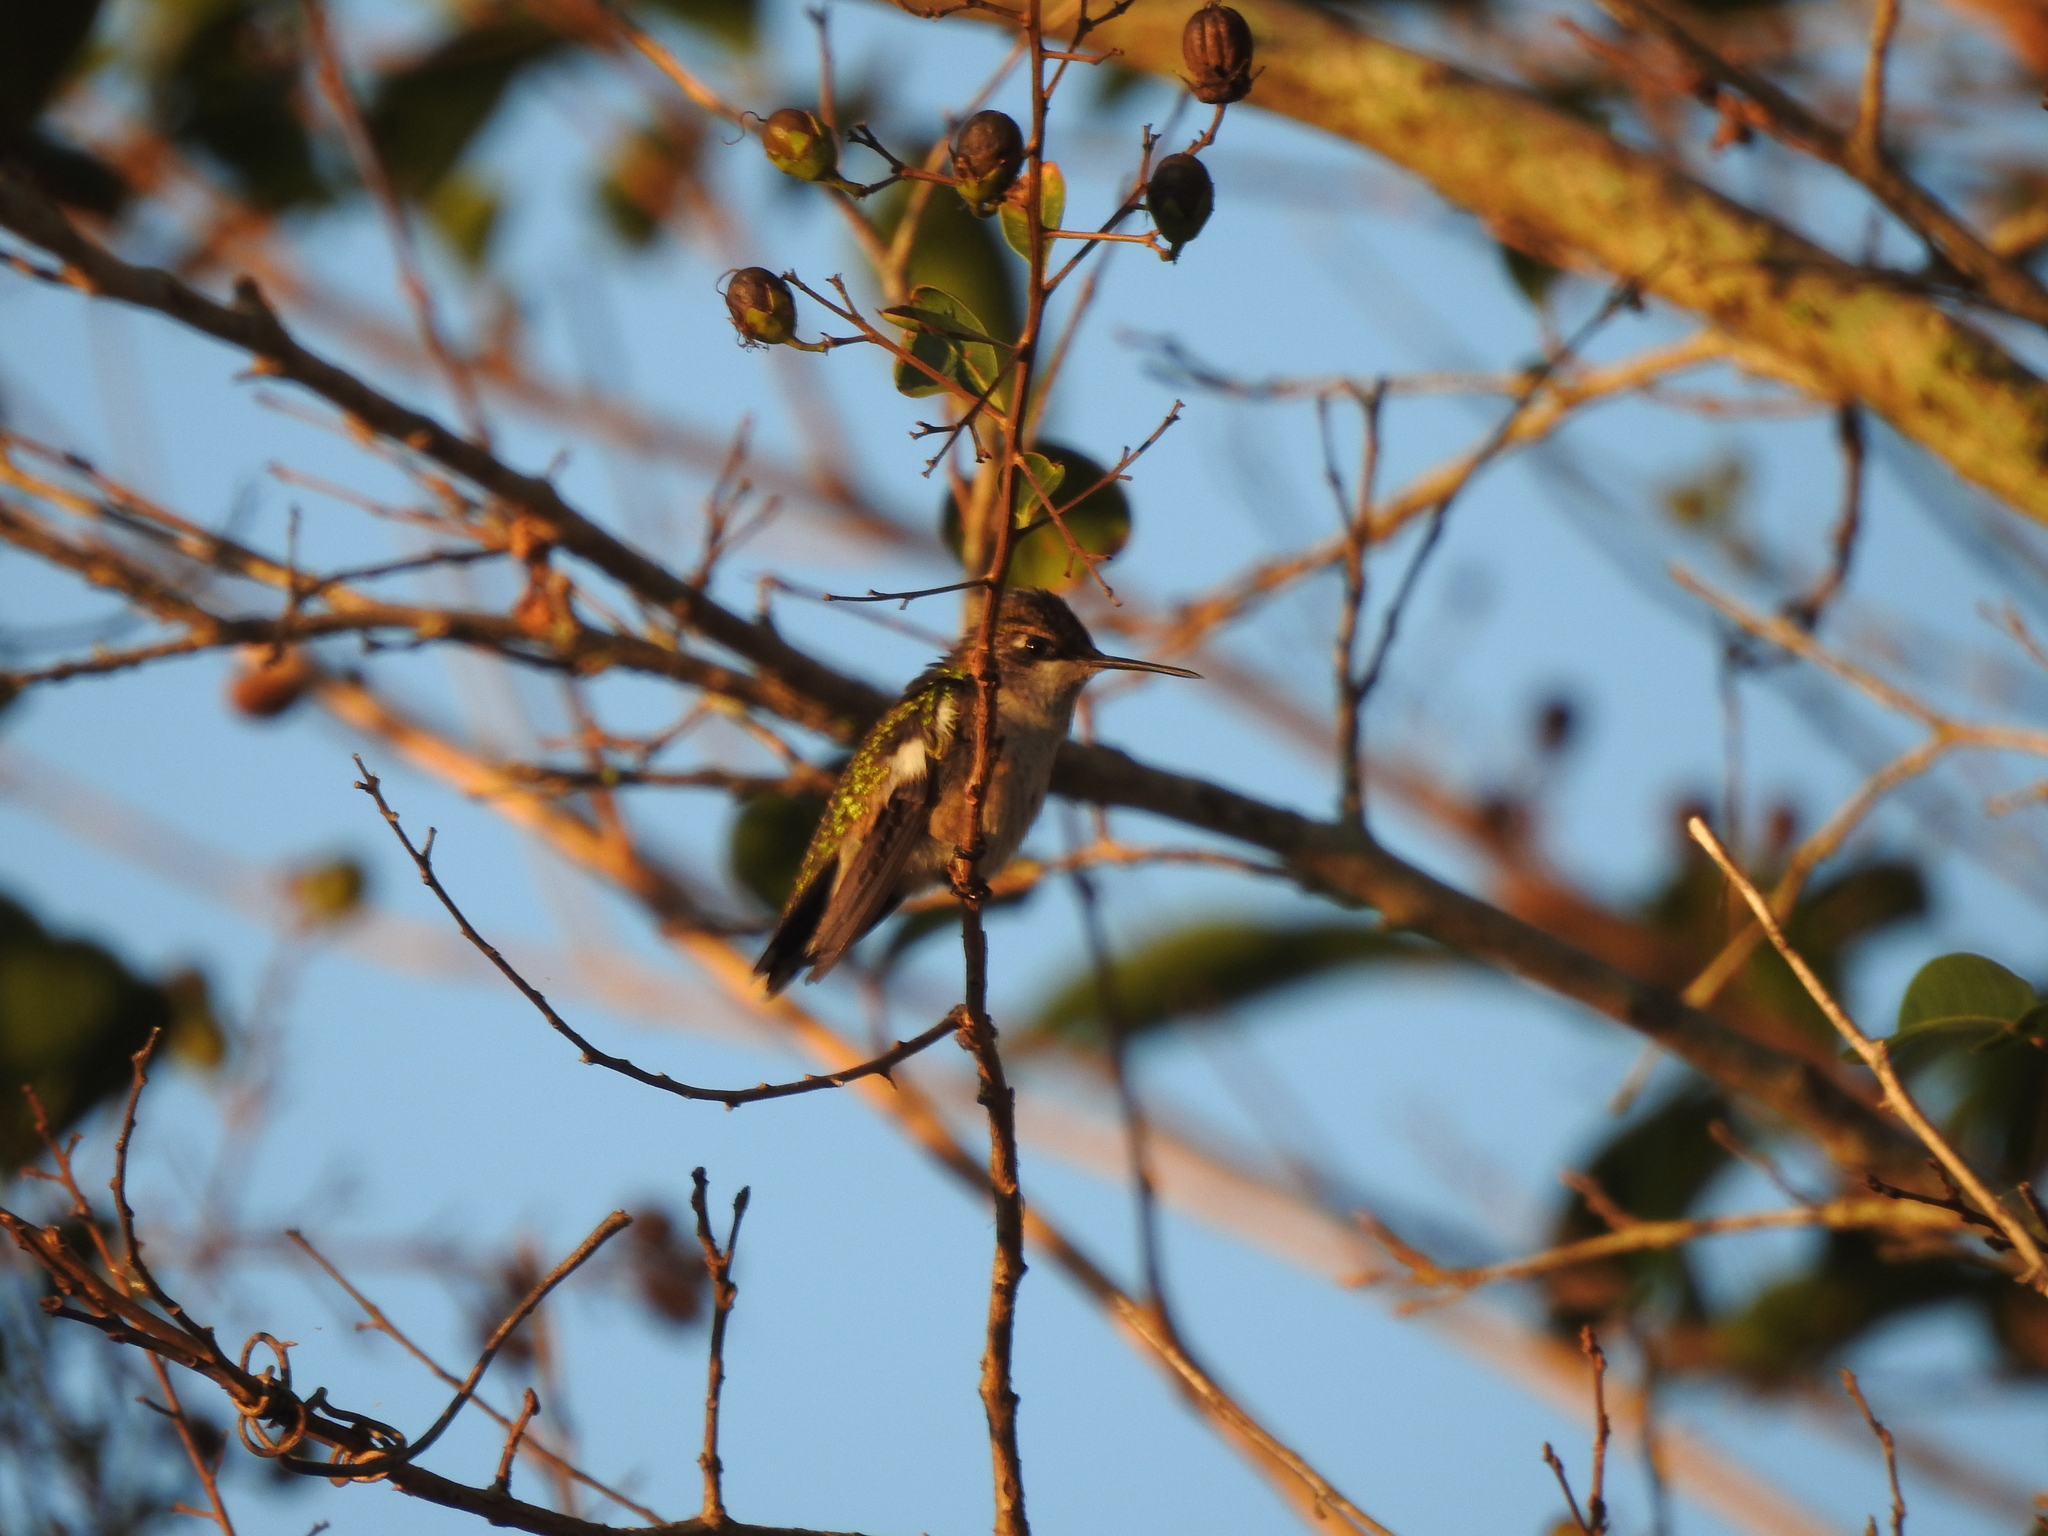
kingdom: Animalia
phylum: Chordata
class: Aves
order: Apodiformes
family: Trochilidae
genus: Archilochus
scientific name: Archilochus colubris
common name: Ruby-throated hummingbird
